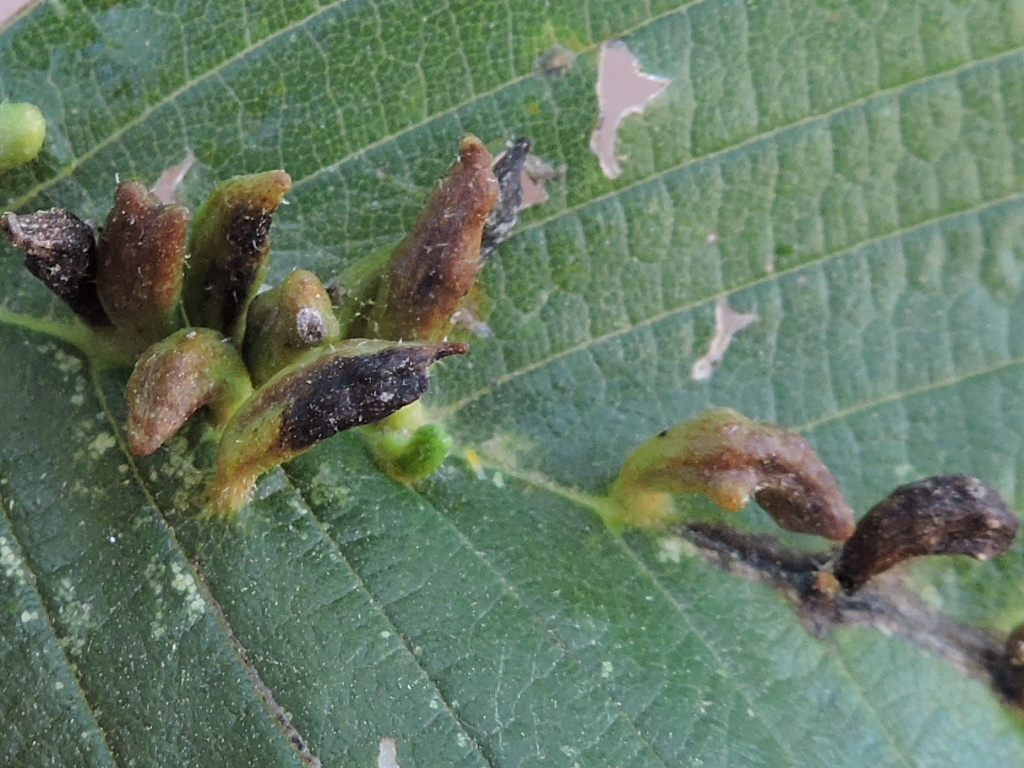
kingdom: Animalia
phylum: Arthropoda
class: Arachnida
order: Trombidiformes
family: Eriophyidae
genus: Aceria
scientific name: Aceria
